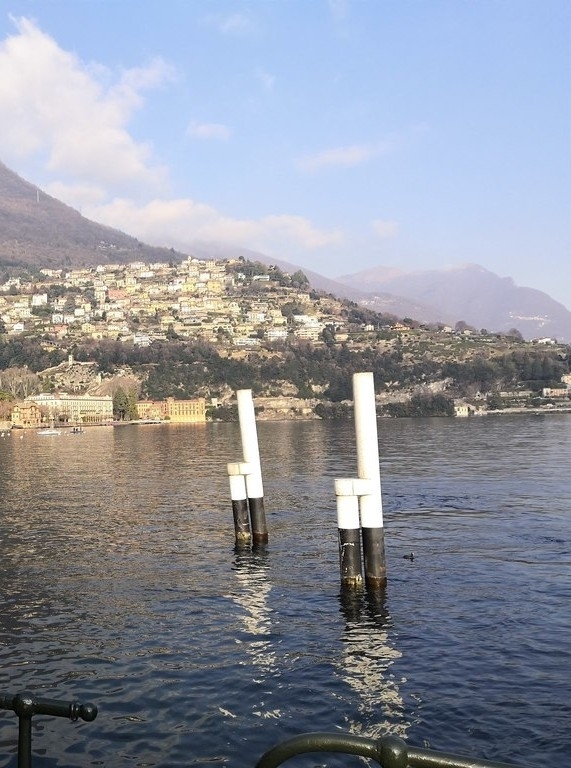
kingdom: Animalia
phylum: Chordata
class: Aves
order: Gruiformes
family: Rallidae
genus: Fulica
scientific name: Fulica atra
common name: Eurasian coot
